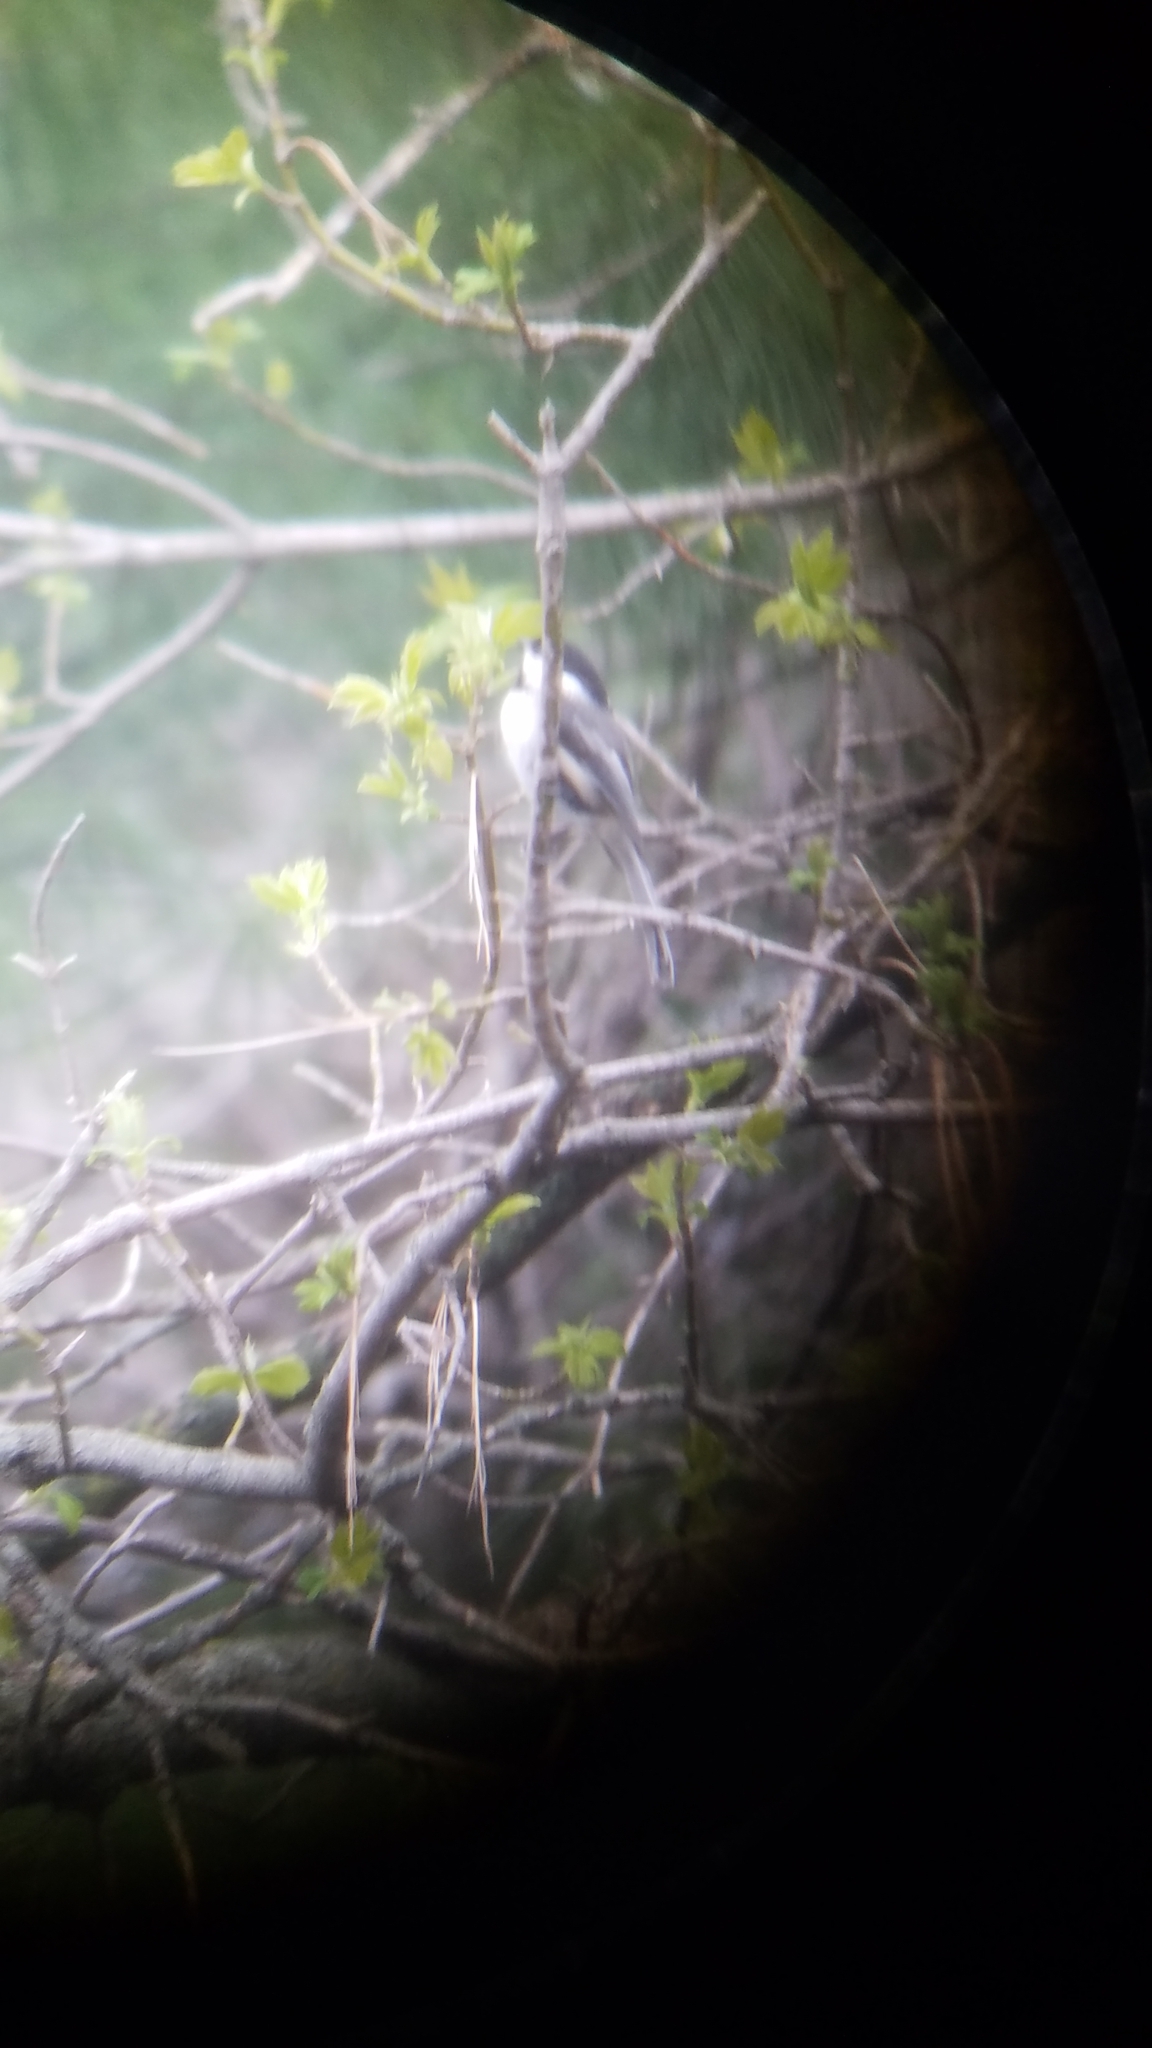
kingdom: Animalia
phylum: Chordata
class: Aves
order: Passeriformes
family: Paridae
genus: Poecile
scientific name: Poecile atricapillus
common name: Black-capped chickadee
